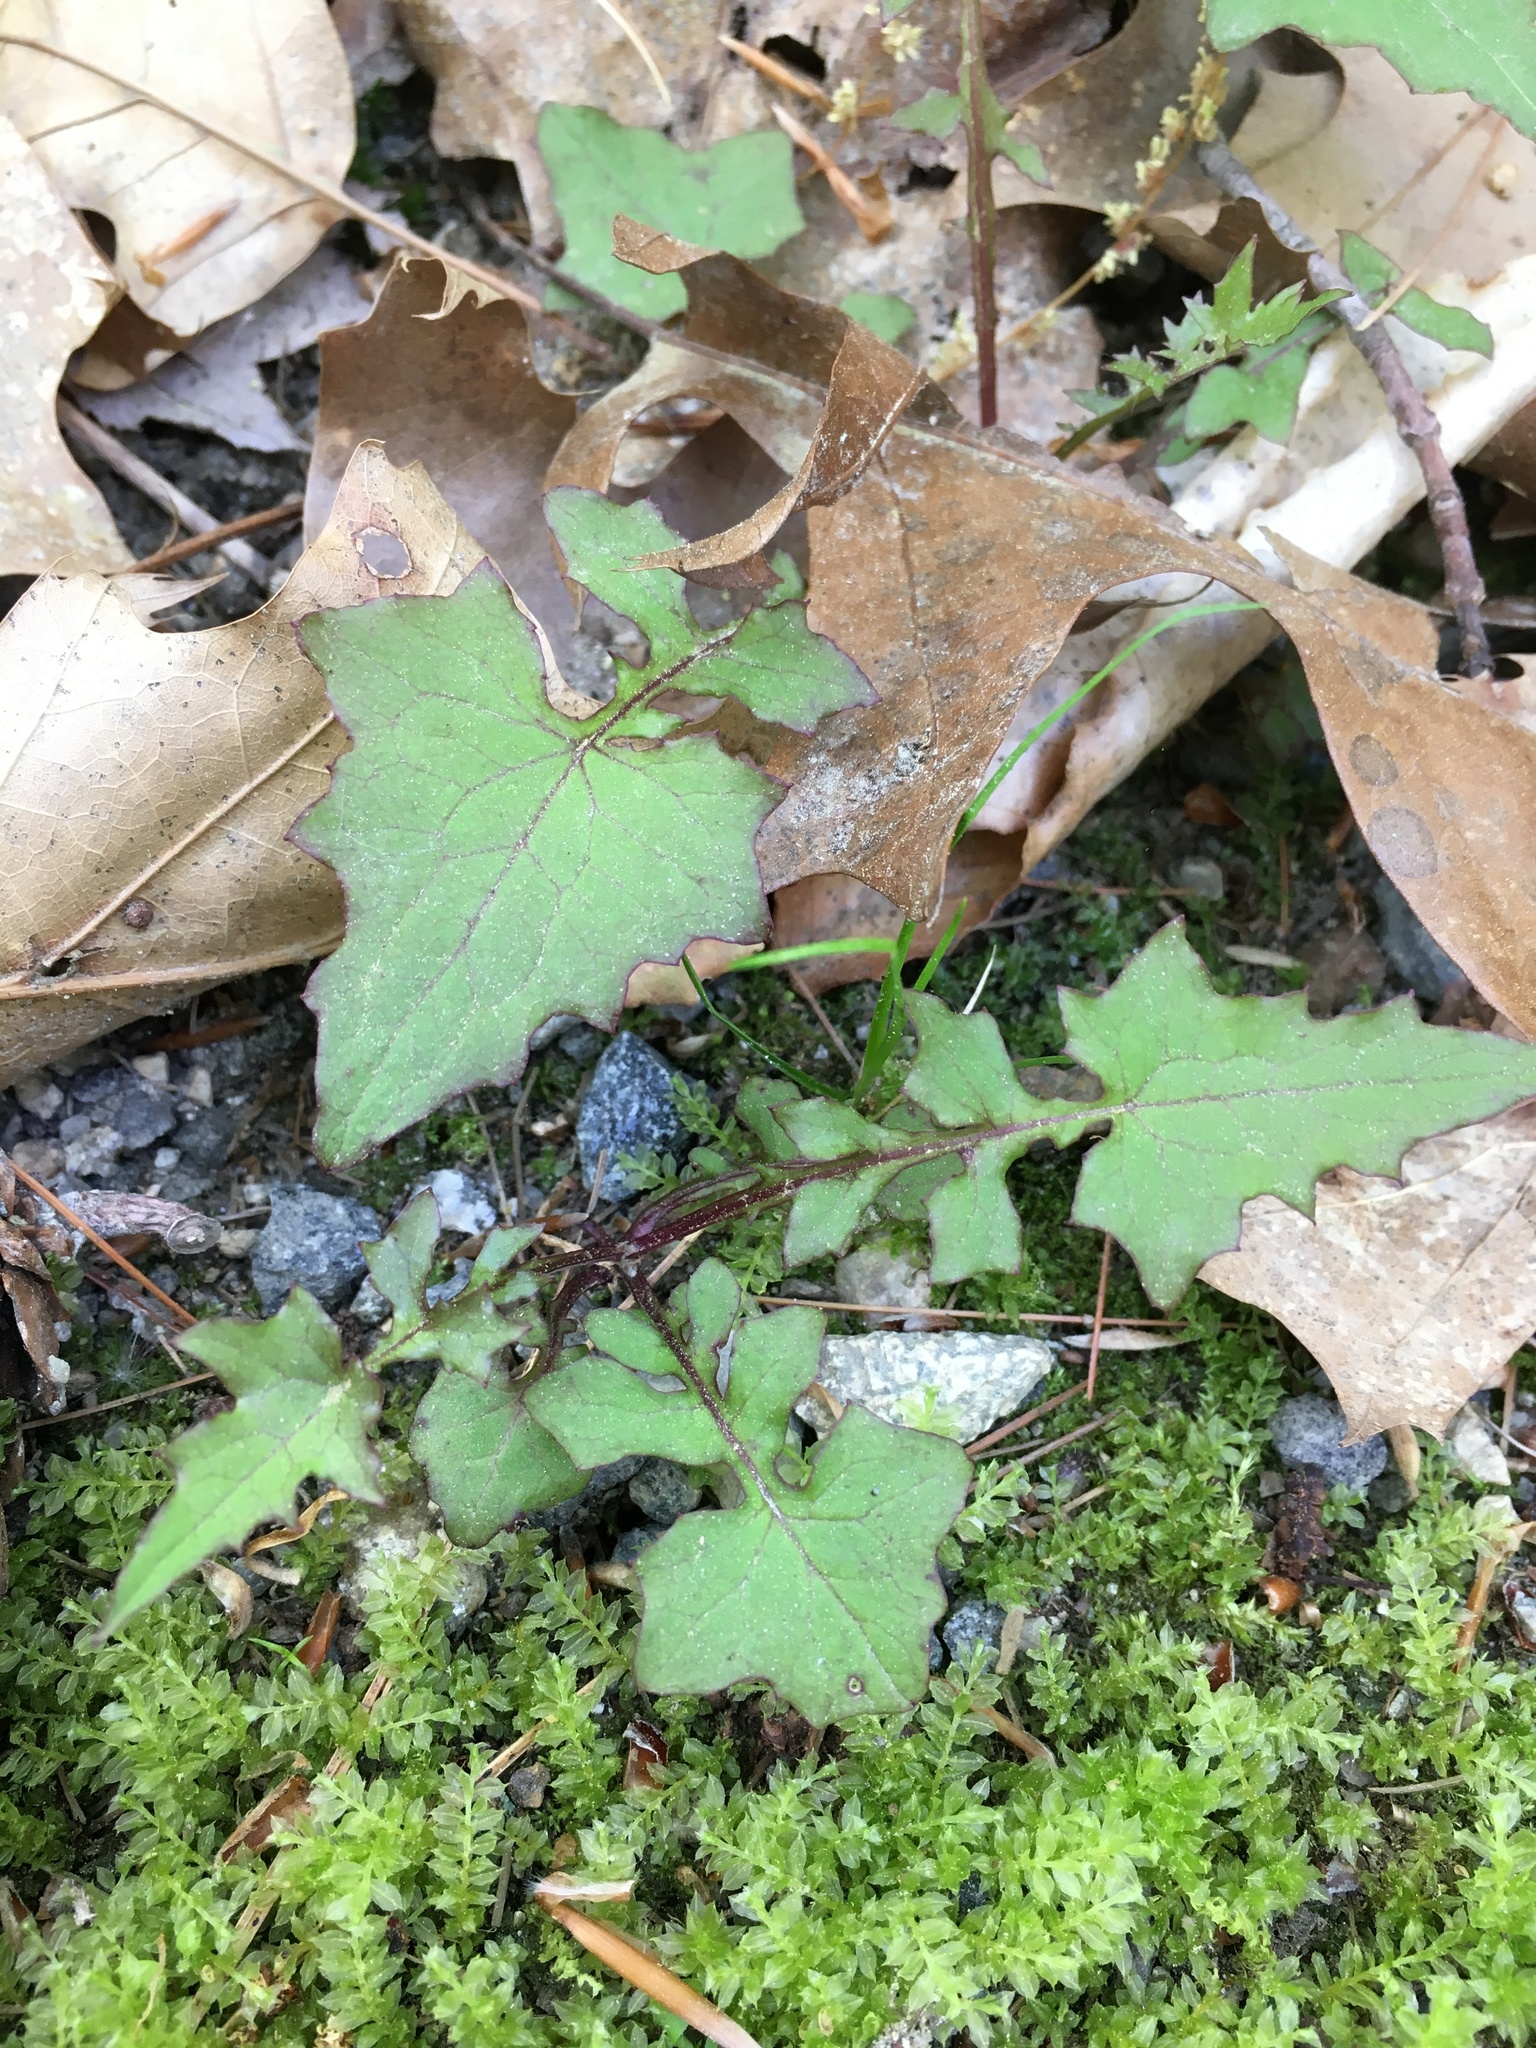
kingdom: Plantae
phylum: Tracheophyta
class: Magnoliopsida
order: Asterales
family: Asteraceae
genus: Mycelis
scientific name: Mycelis muralis
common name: Wall lettuce
